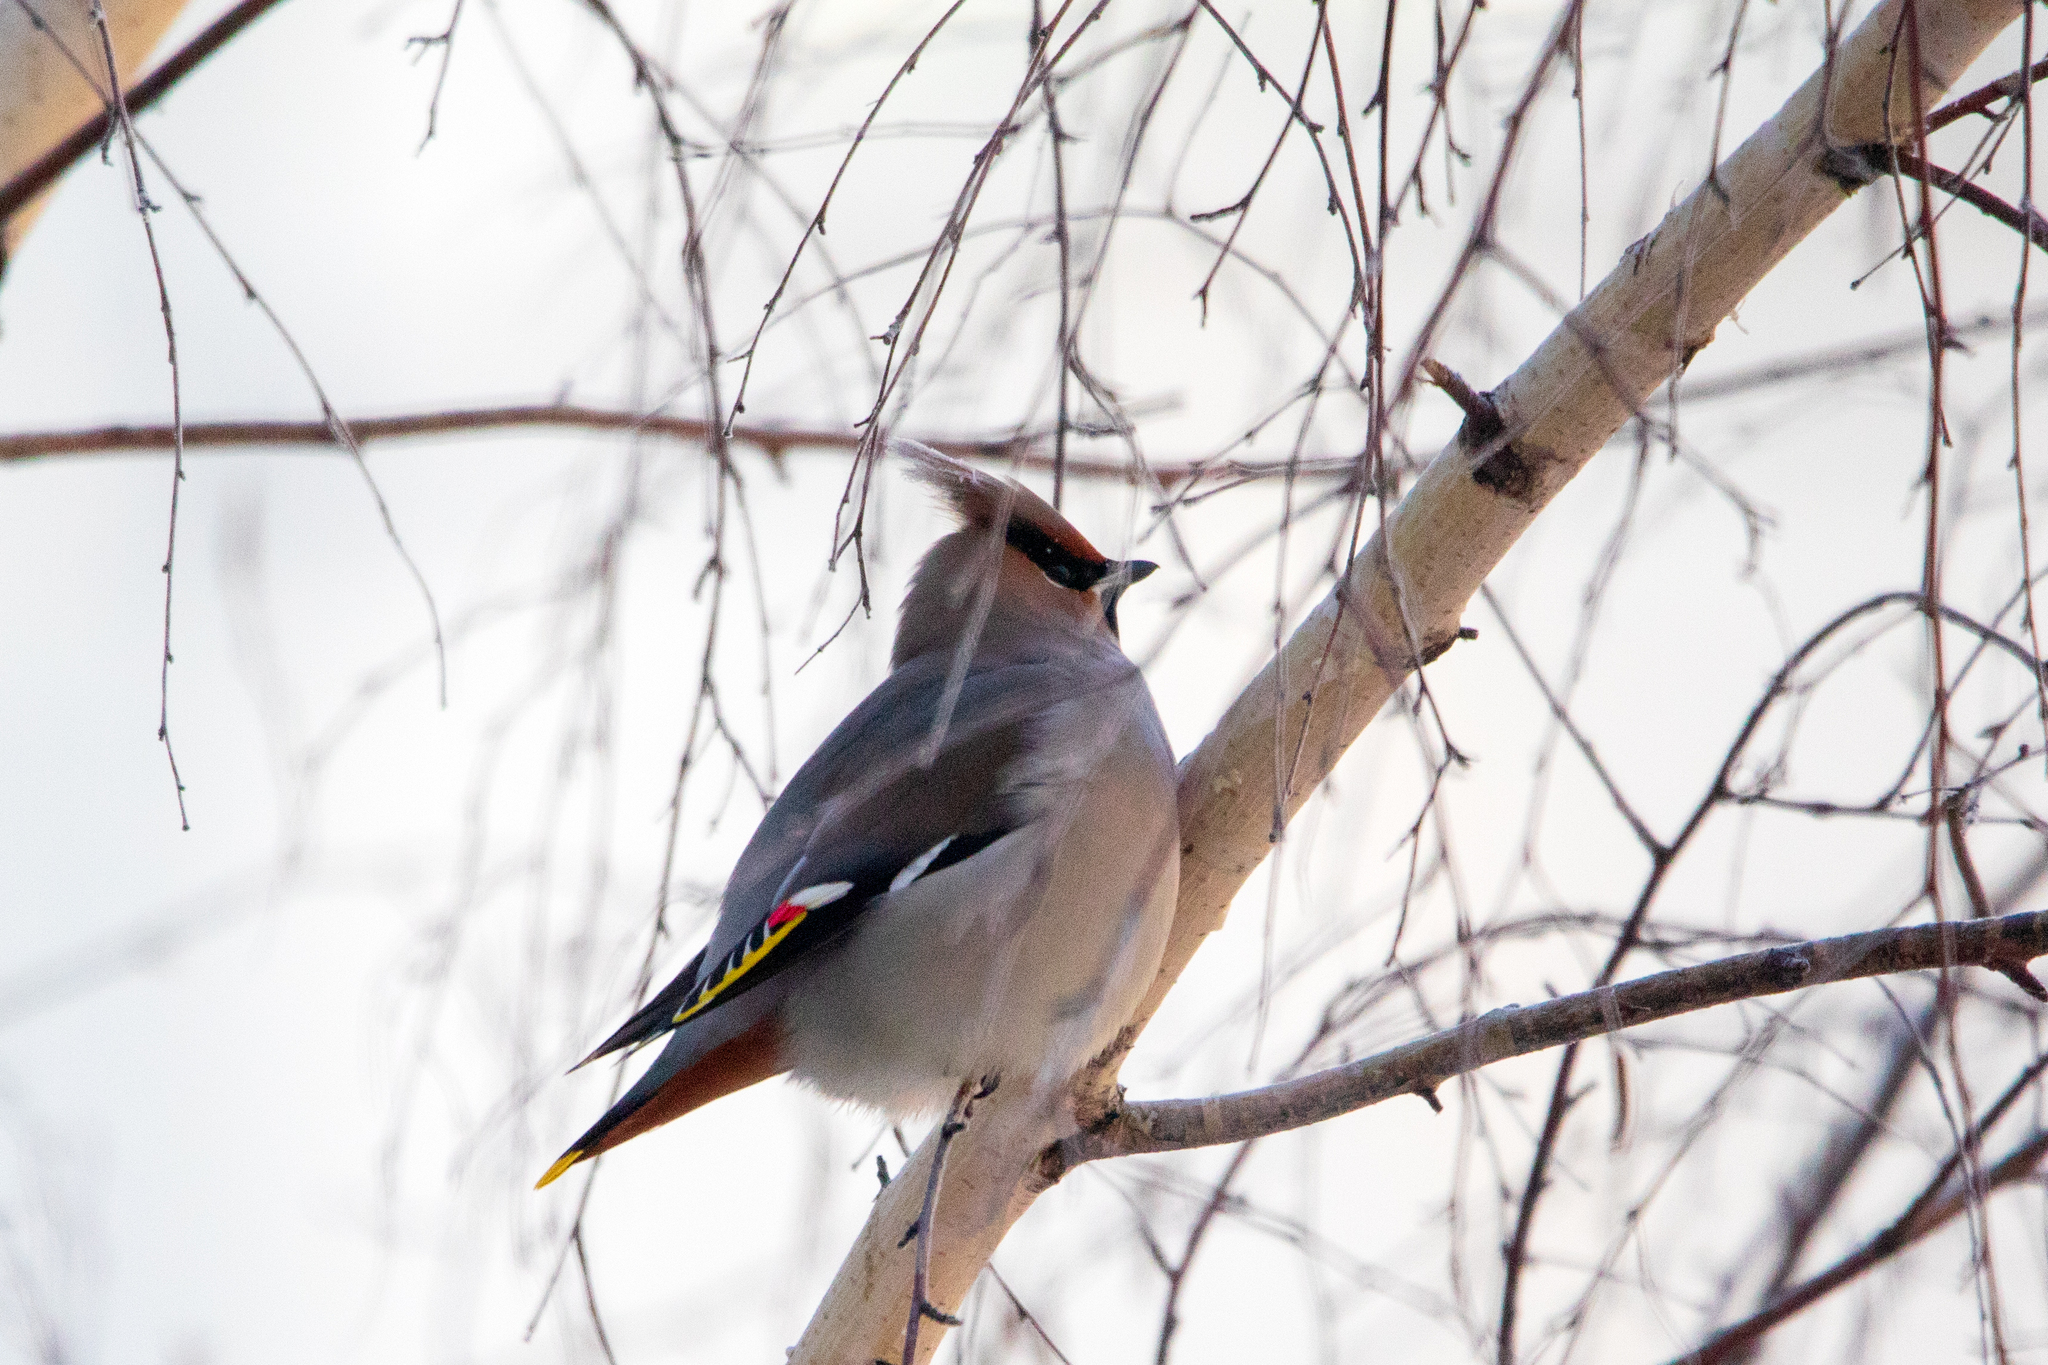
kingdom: Animalia
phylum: Chordata
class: Aves
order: Passeriformes
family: Bombycillidae
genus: Bombycilla
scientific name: Bombycilla garrulus
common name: Bohemian waxwing
